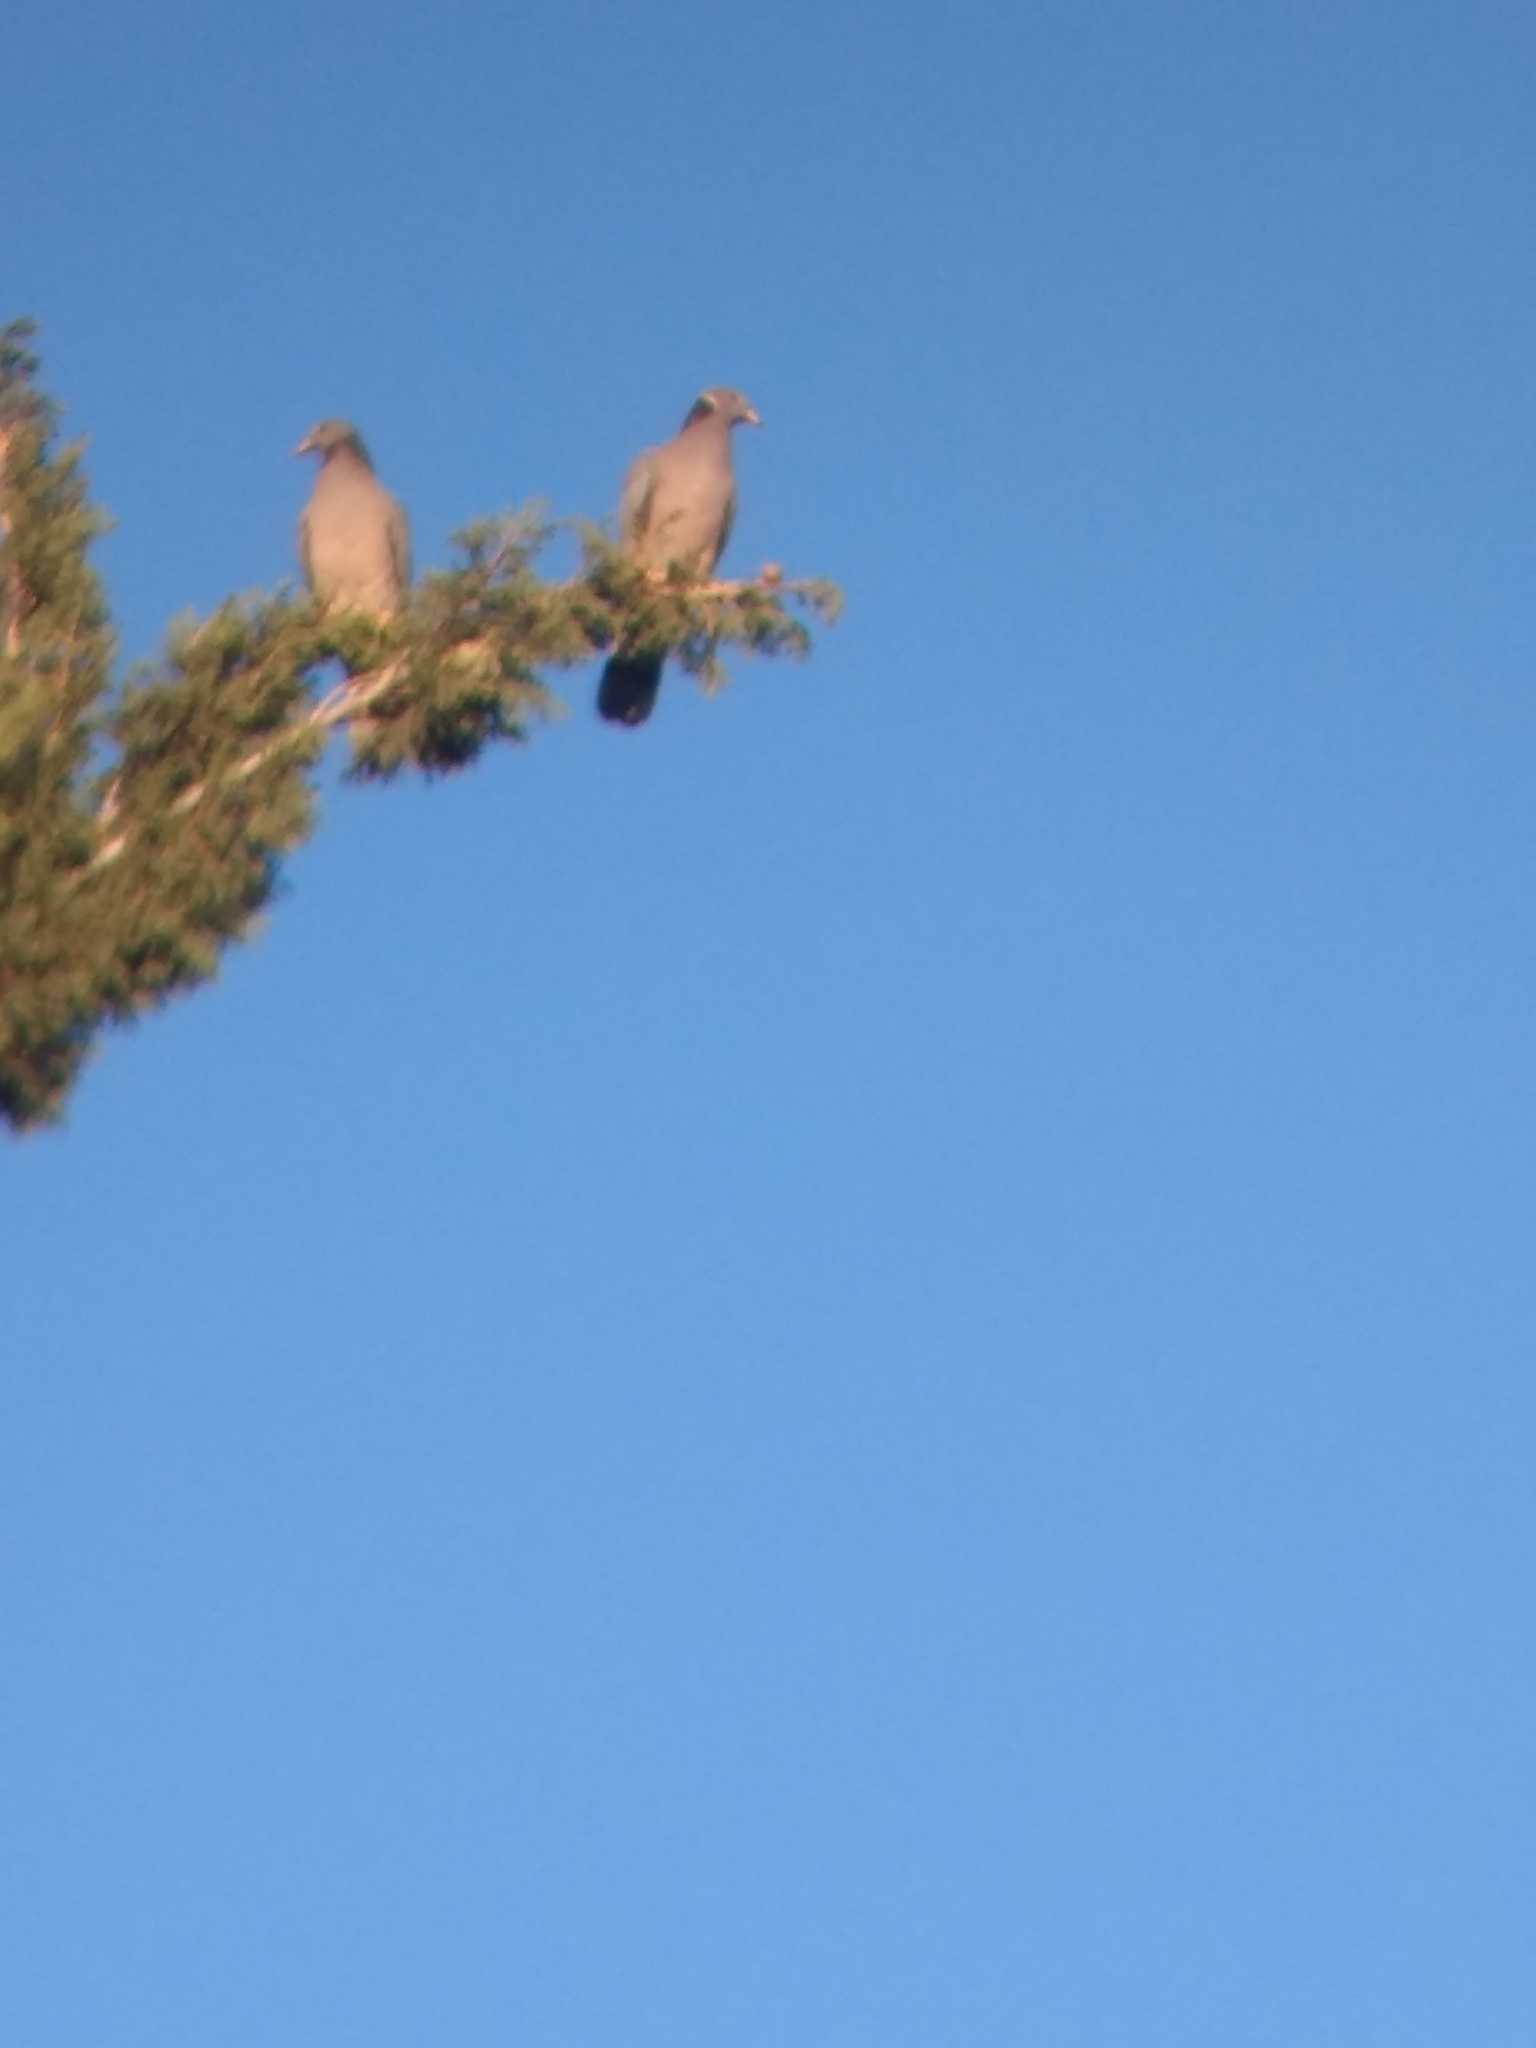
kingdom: Animalia
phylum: Chordata
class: Aves
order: Columbiformes
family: Columbidae
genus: Patagioenas
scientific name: Patagioenas fasciata
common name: Band-tailed pigeon
